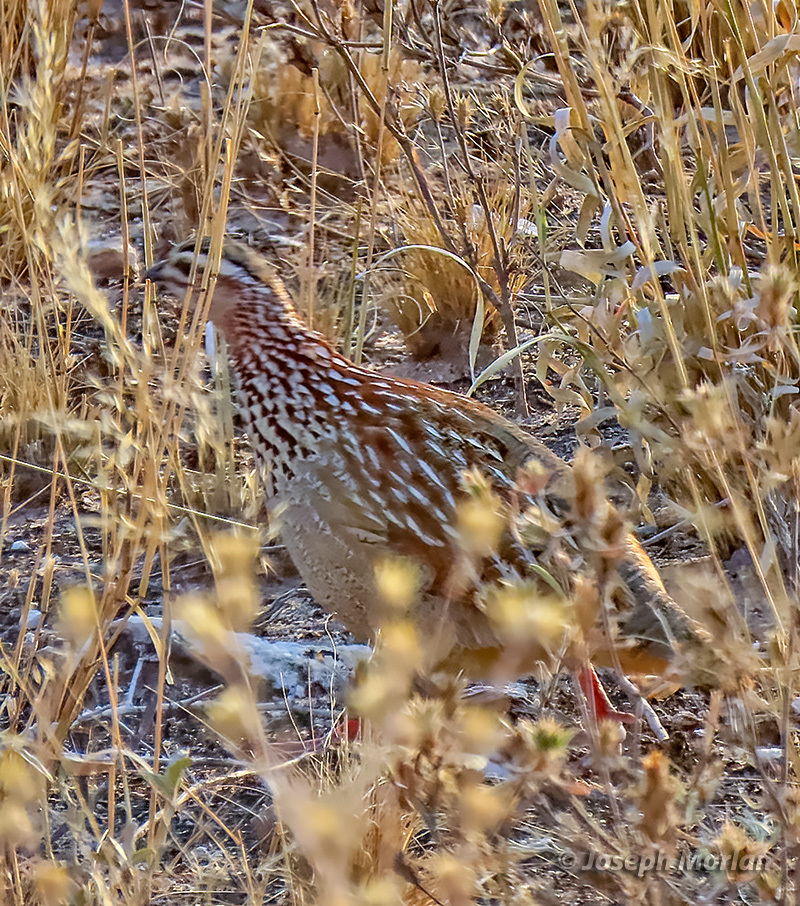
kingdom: Animalia
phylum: Chordata
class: Aves
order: Galliformes
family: Phasianidae
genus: Ortygornis
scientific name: Ortygornis sephaena
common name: Crested francolin
